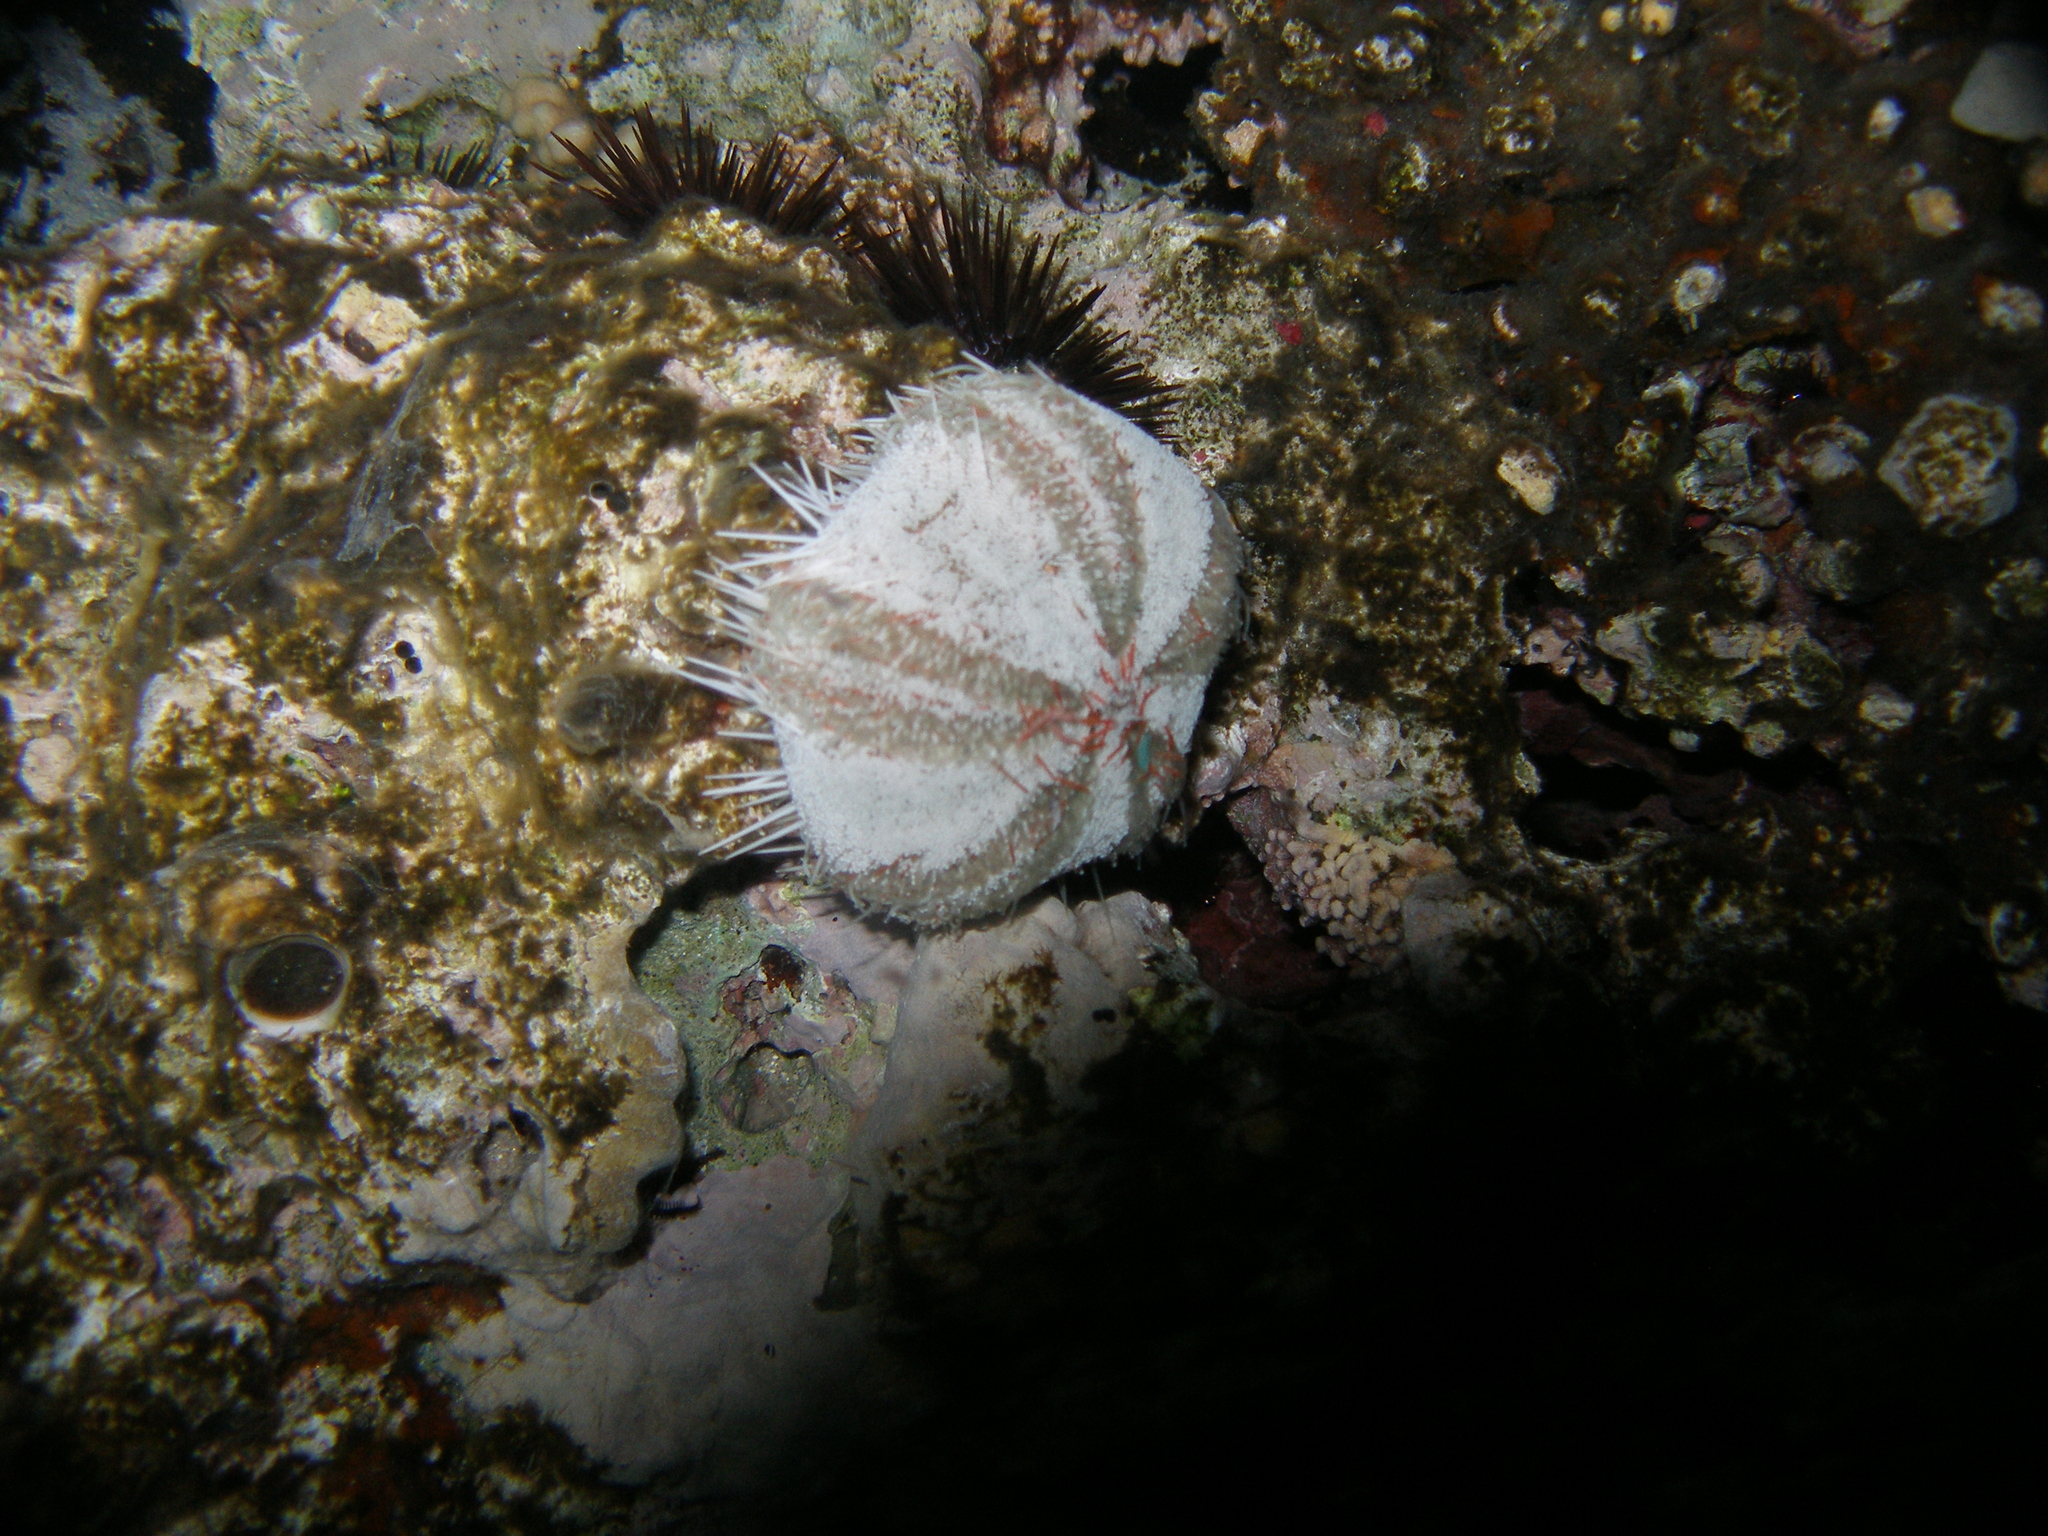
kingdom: Animalia
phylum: Echinodermata
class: Echinoidea
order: Camarodonta
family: Toxopneustidae
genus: Tripneustes
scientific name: Tripneustes gratilla
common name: Bischofsmützenseeigel
